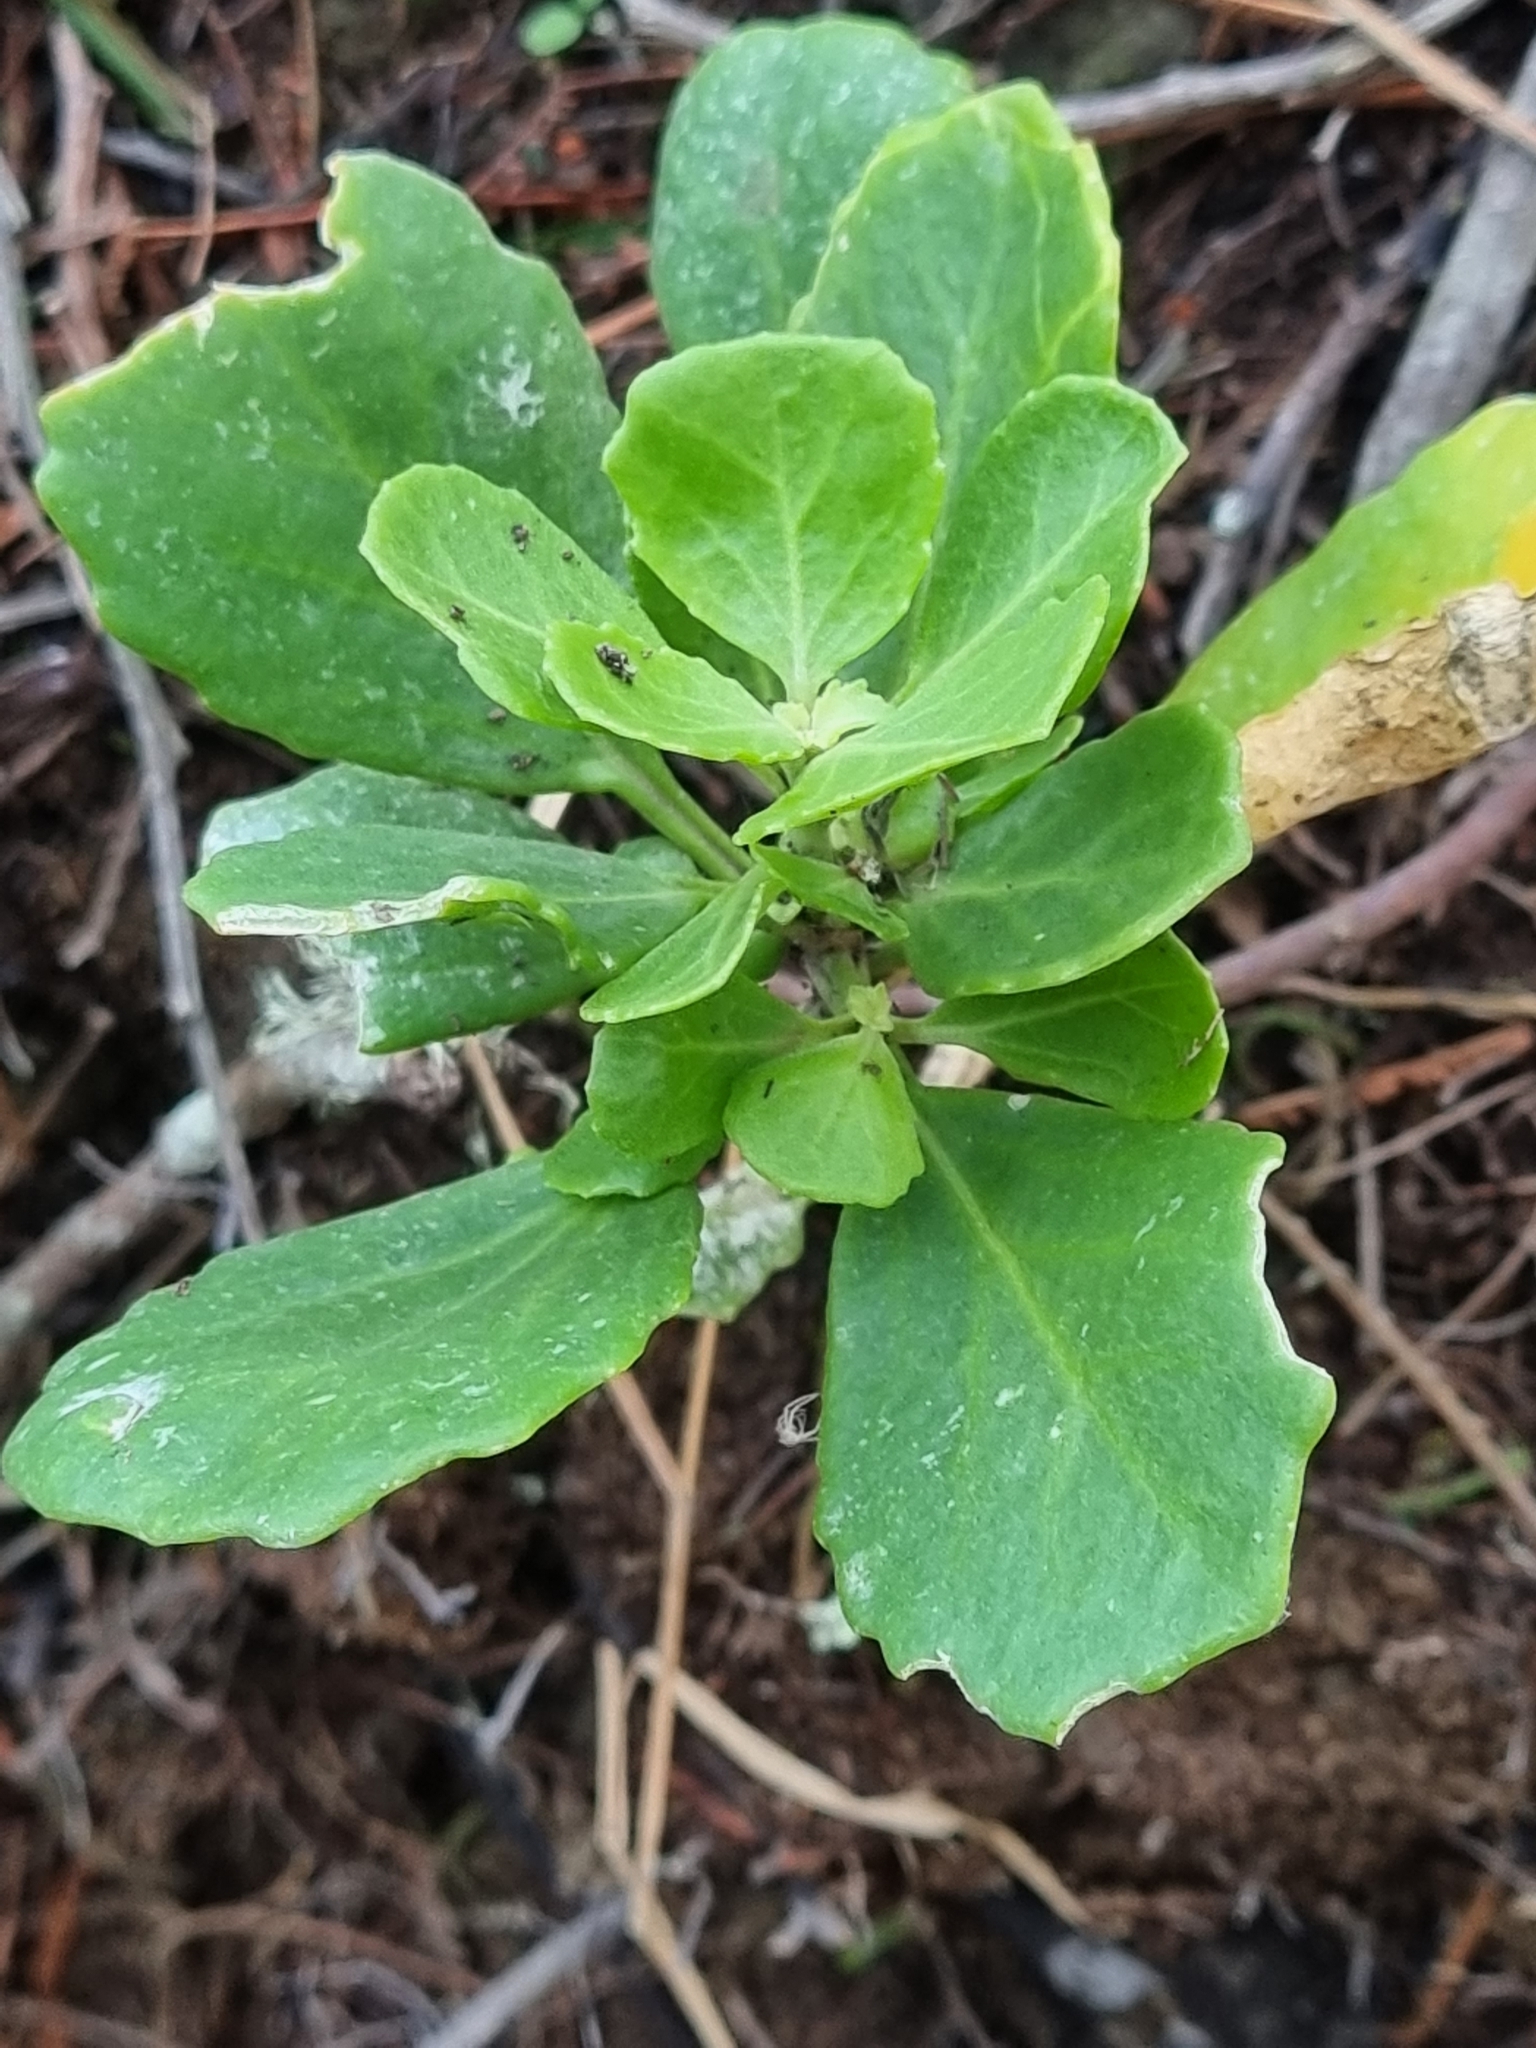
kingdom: Plantae
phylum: Tracheophyta
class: Magnoliopsida
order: Brassicales
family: Brassicaceae
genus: Sinapidendron
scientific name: Sinapidendron rupestre
